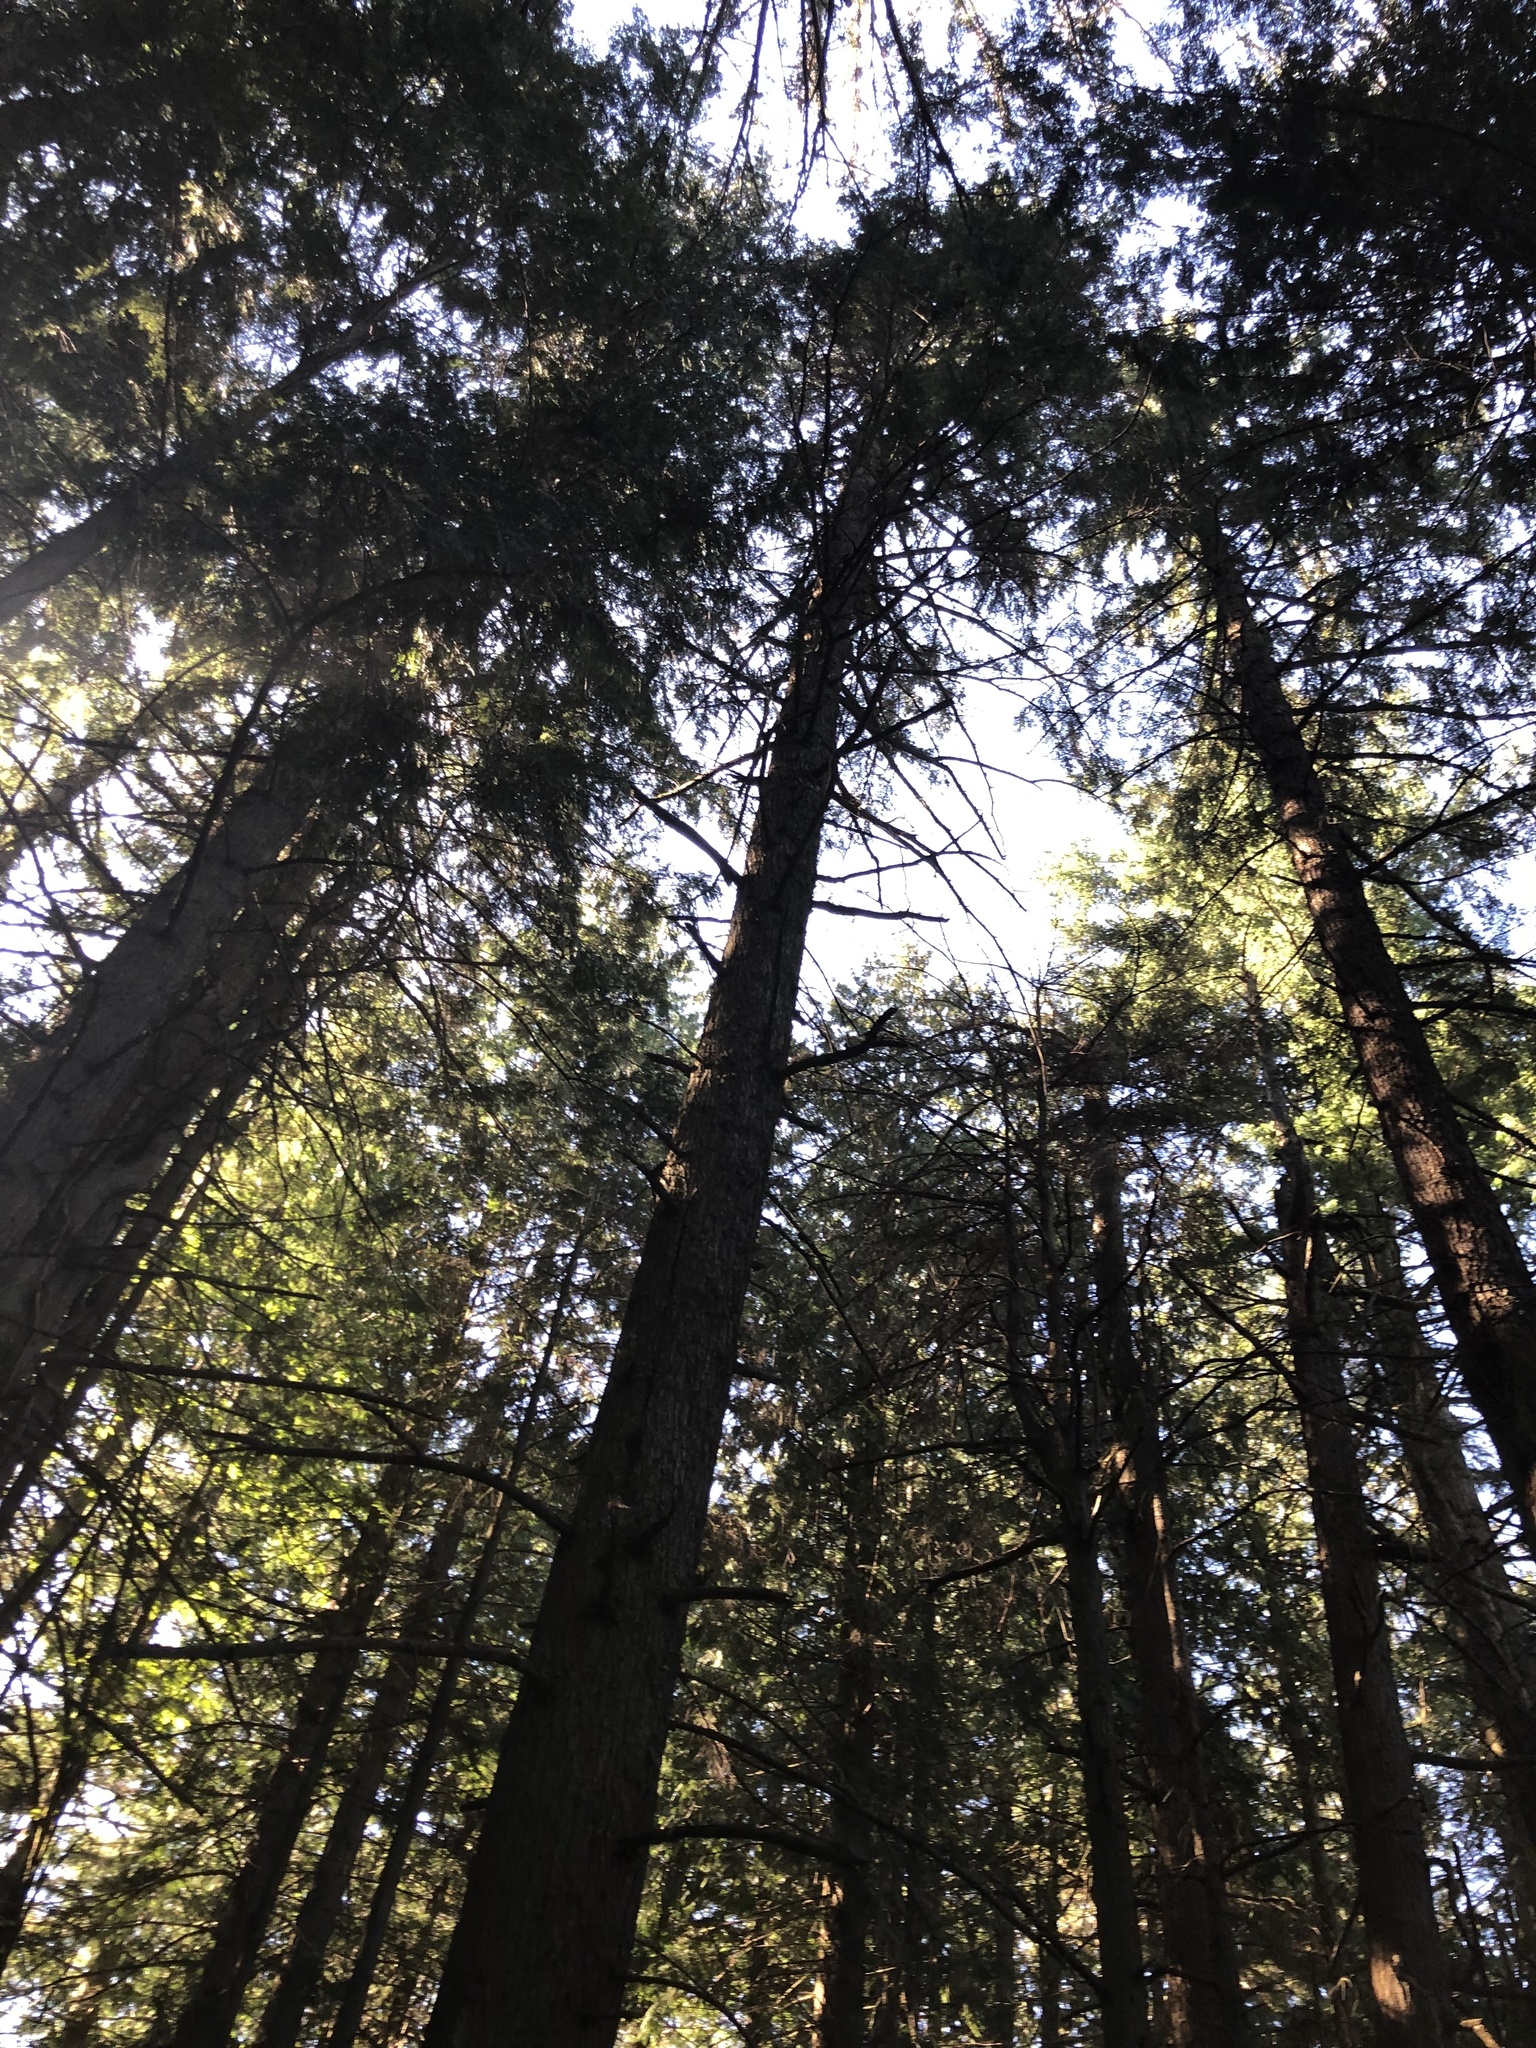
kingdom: Plantae
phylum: Tracheophyta
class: Pinopsida
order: Pinales
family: Pinaceae
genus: Tsuga
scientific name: Tsuga heterophylla
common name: Western hemlock
